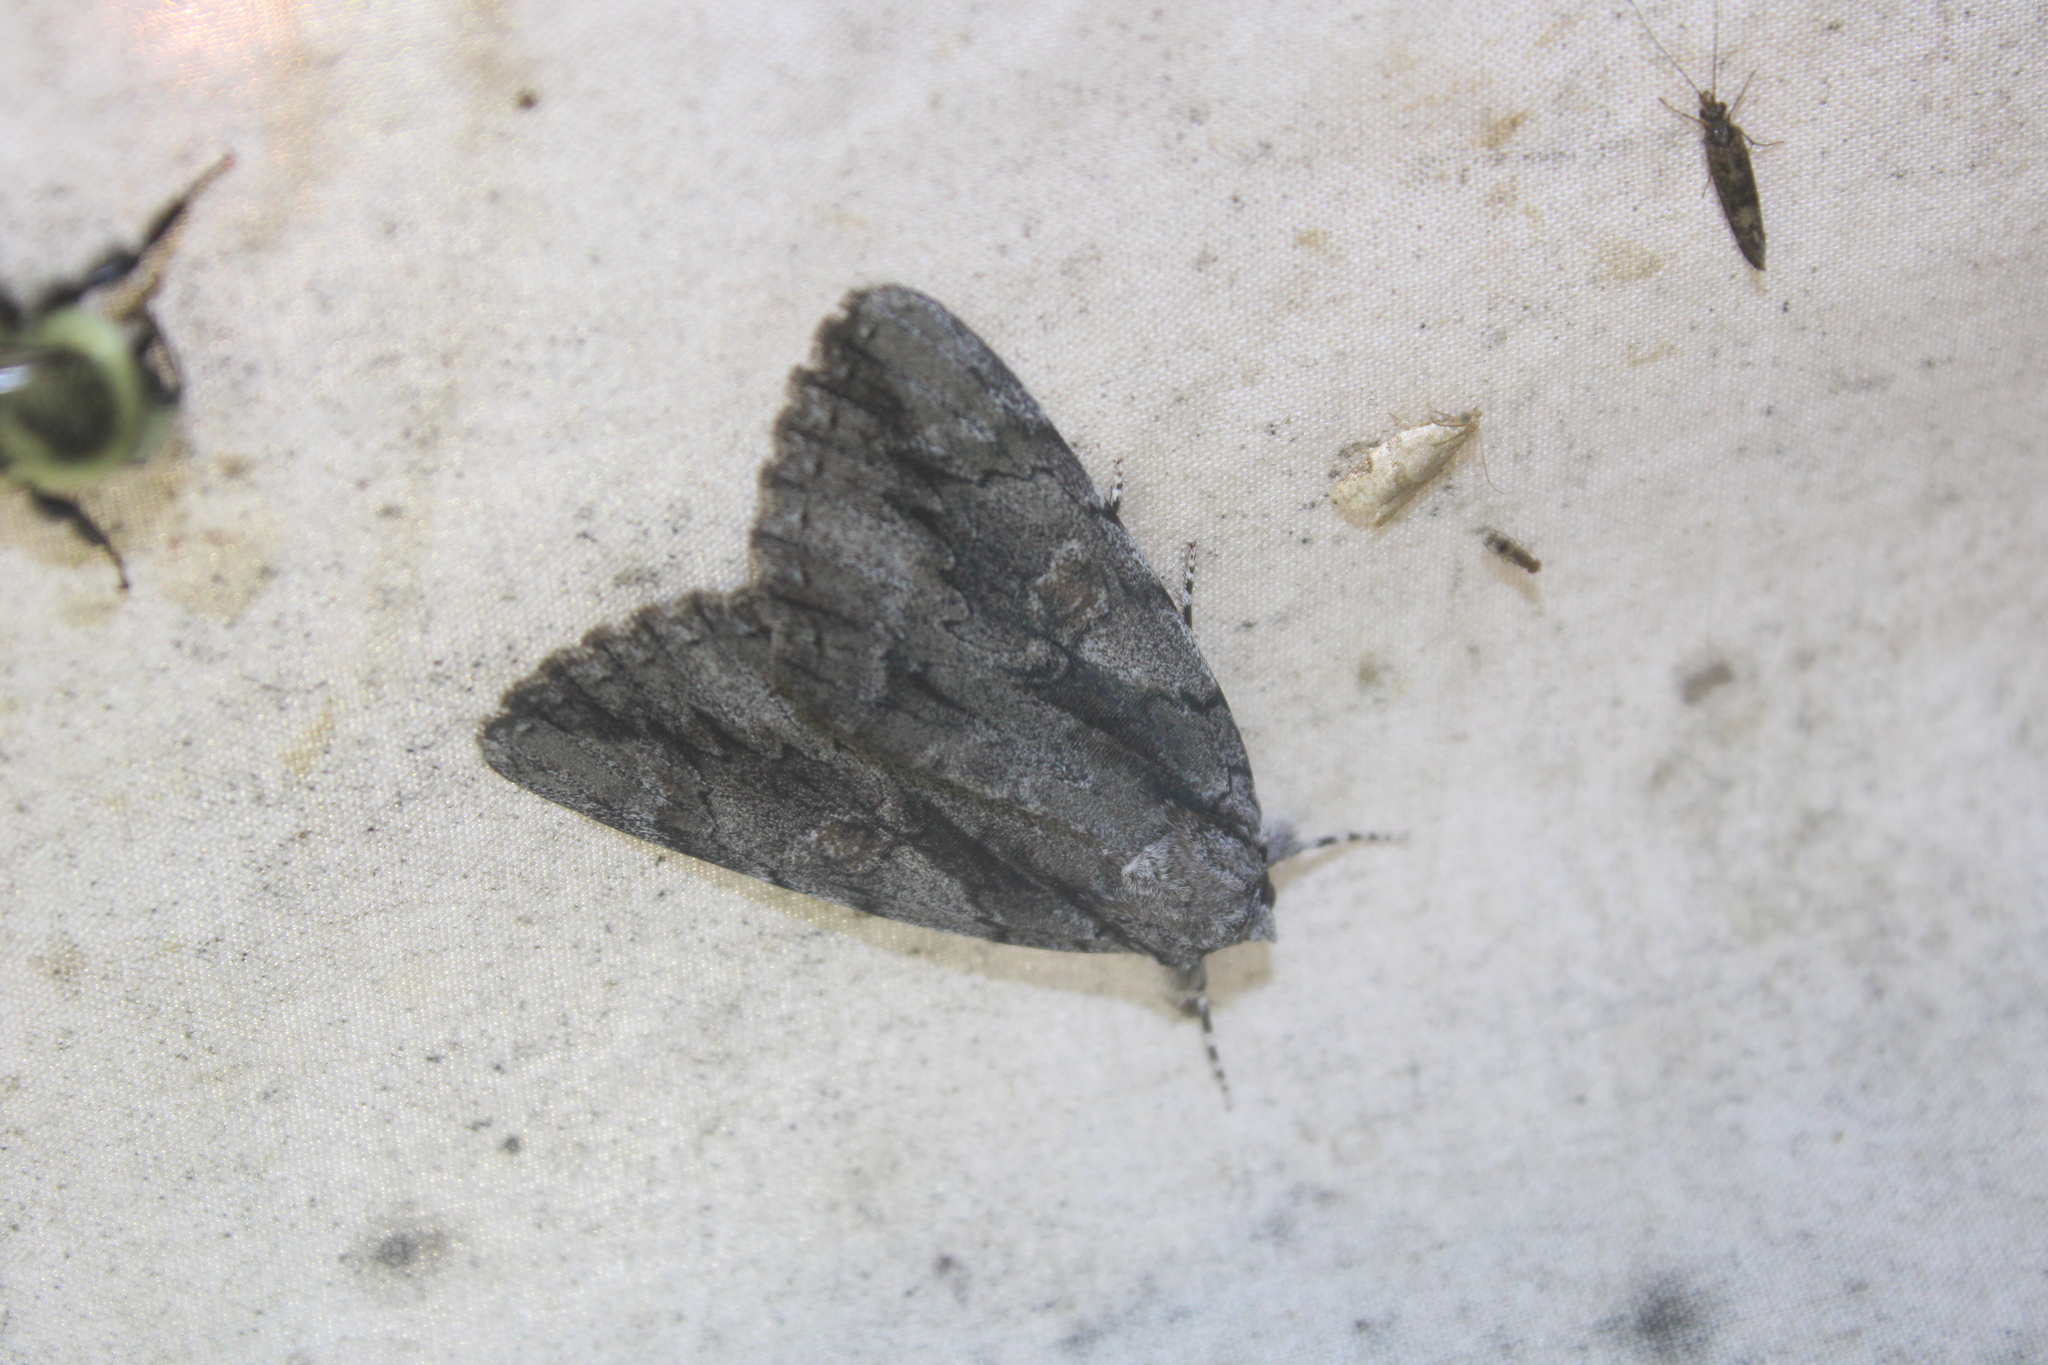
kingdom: Animalia
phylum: Arthropoda
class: Insecta
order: Lepidoptera
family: Erebidae
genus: Catocala
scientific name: Catocala flebilis
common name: Mournful underwing
